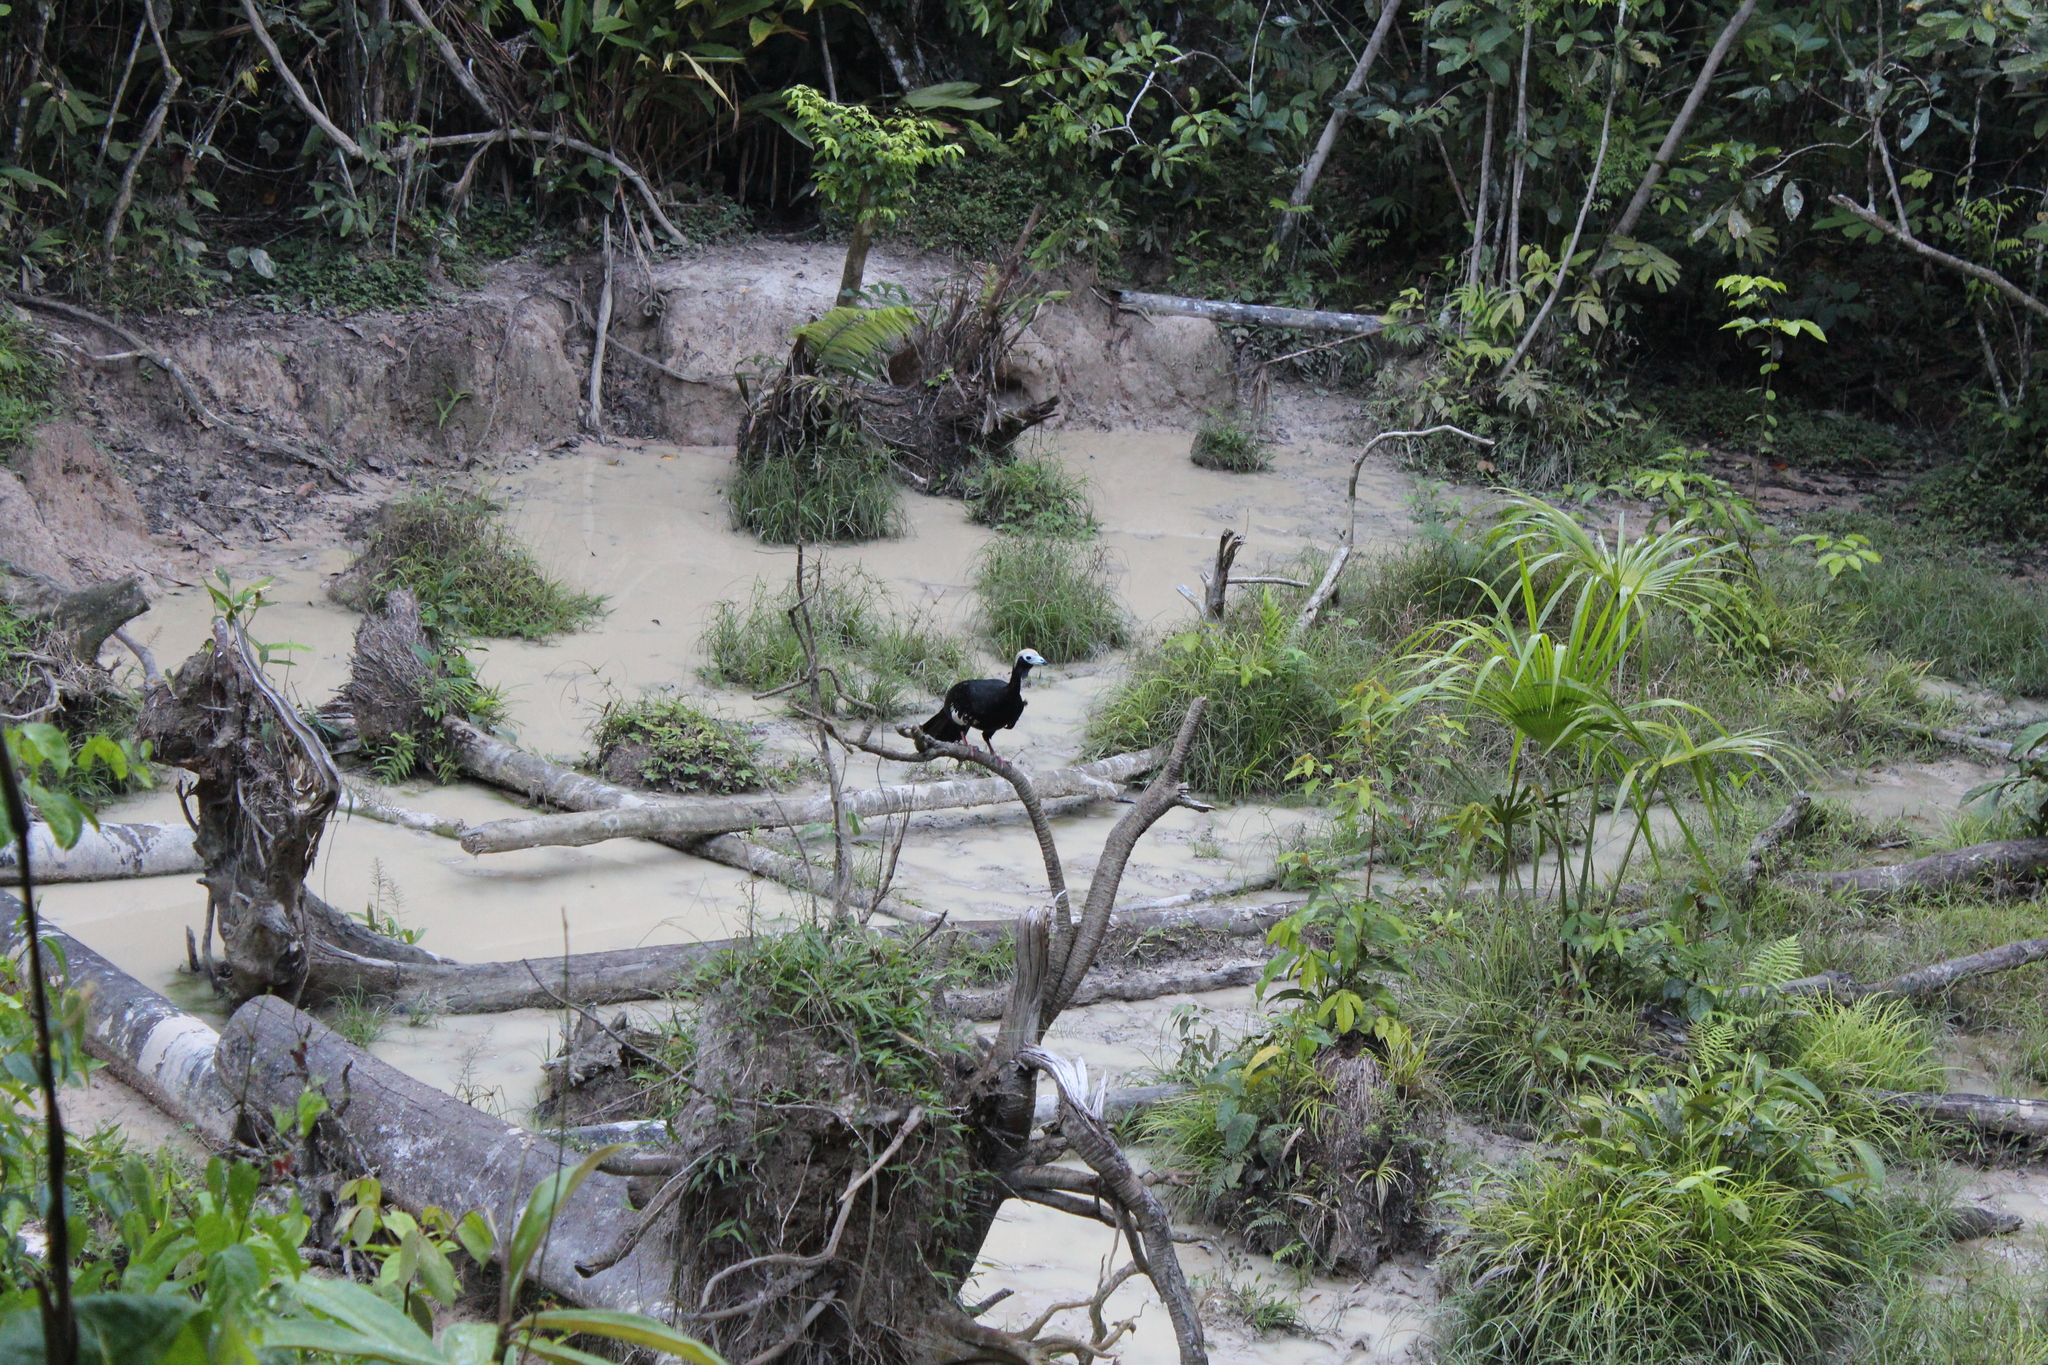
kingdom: Animalia
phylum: Chordata
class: Aves
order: Galliformes
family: Cracidae
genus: Pipile
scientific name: Pipile cumanensis
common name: Blue-throated piping-guan
